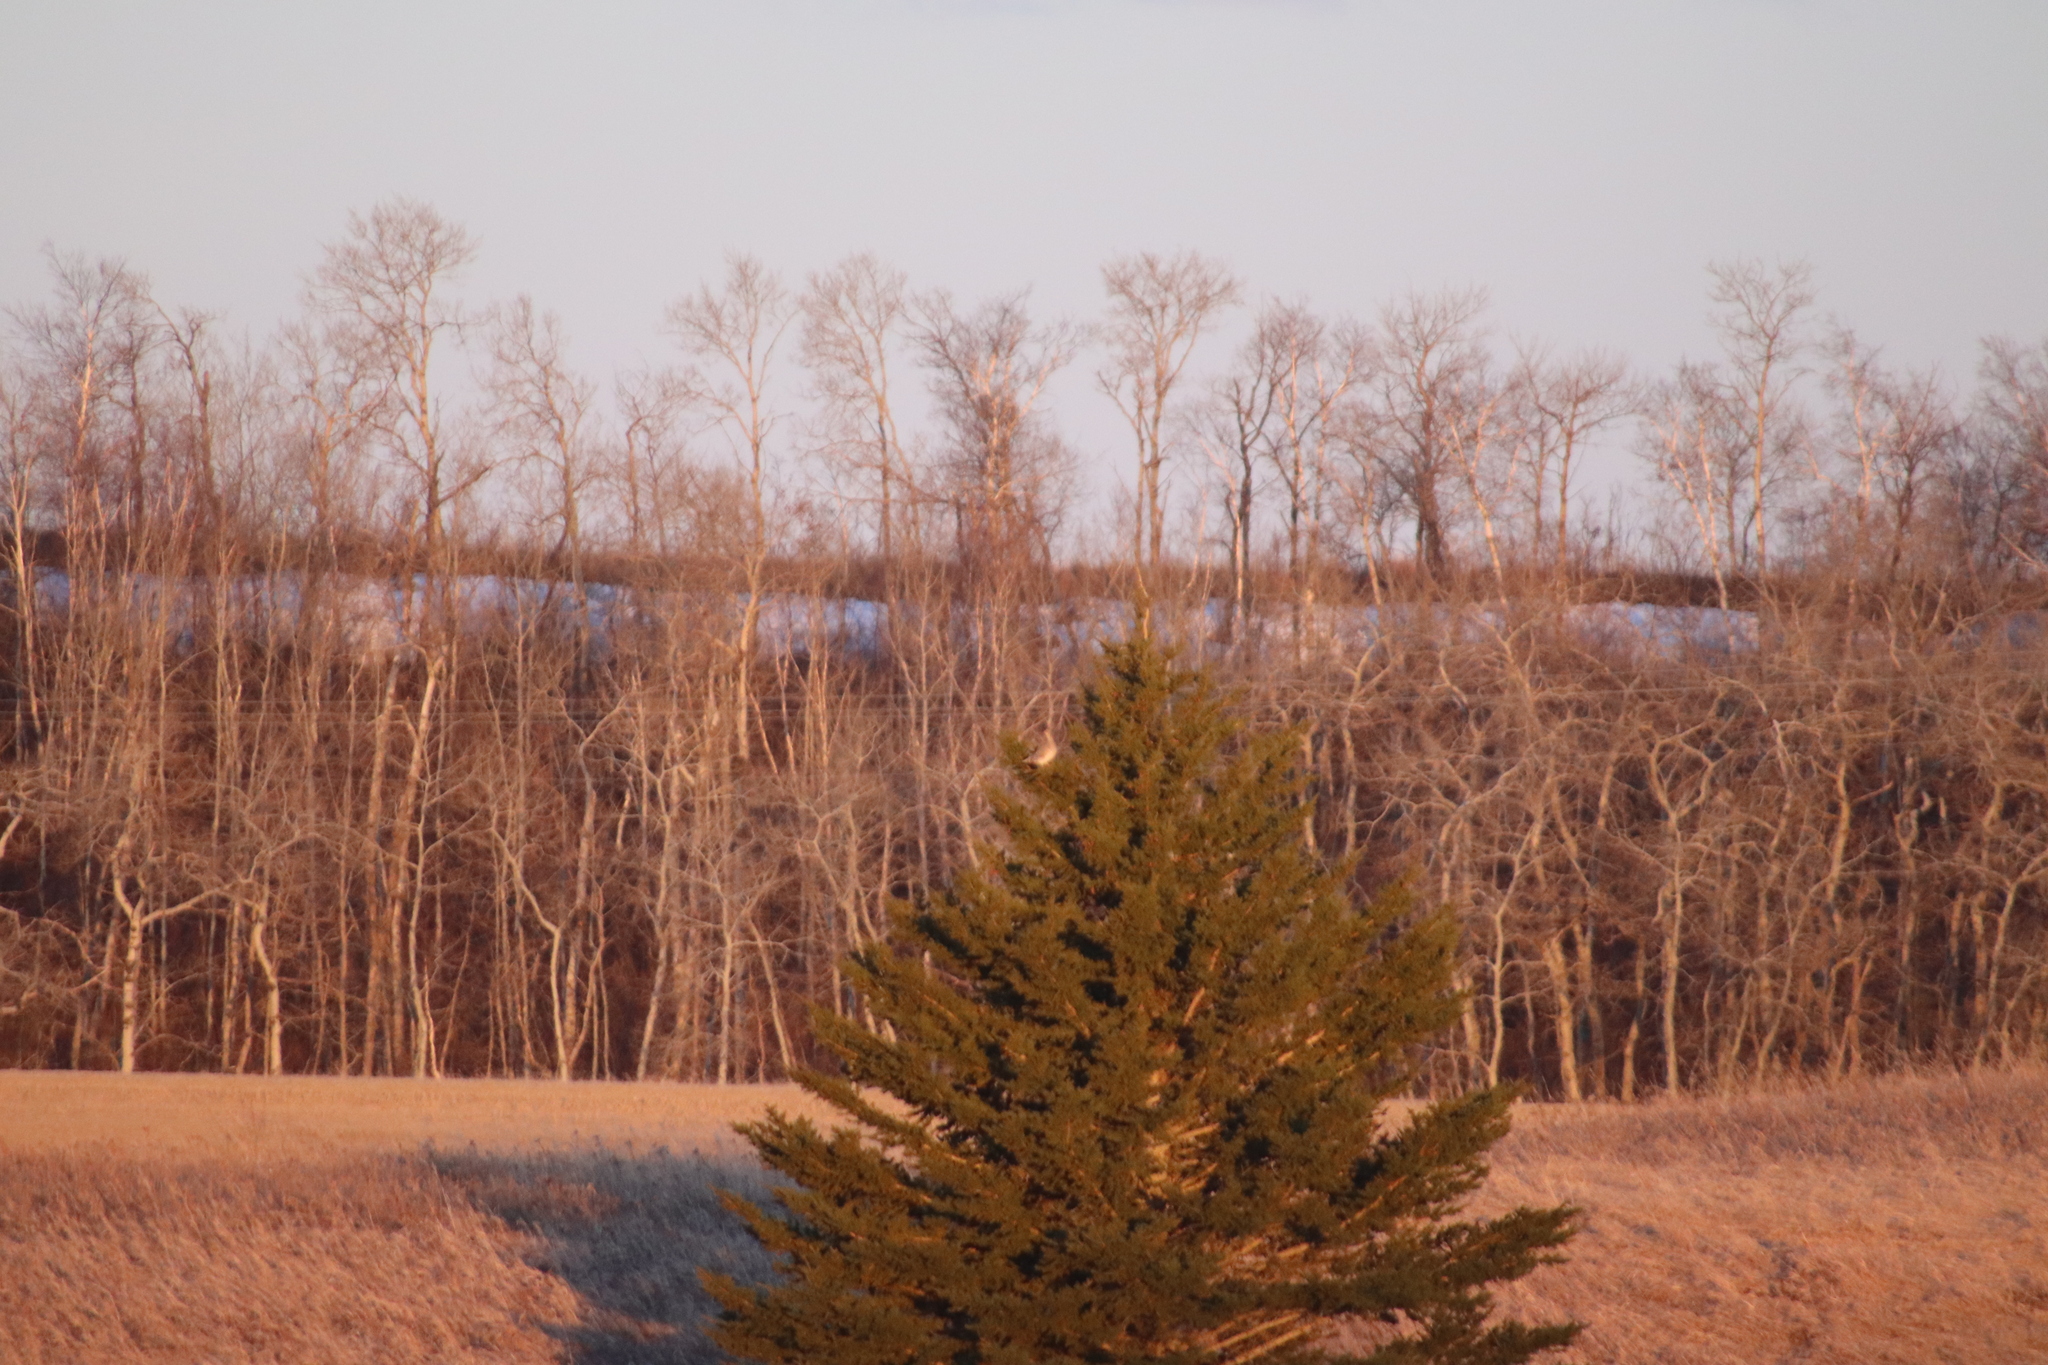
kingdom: Animalia
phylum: Chordata
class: Aves
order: Galliformes
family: Phasianidae
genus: Tympanuchus
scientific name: Tympanuchus phasianellus
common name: Sharp-tailed grouse
